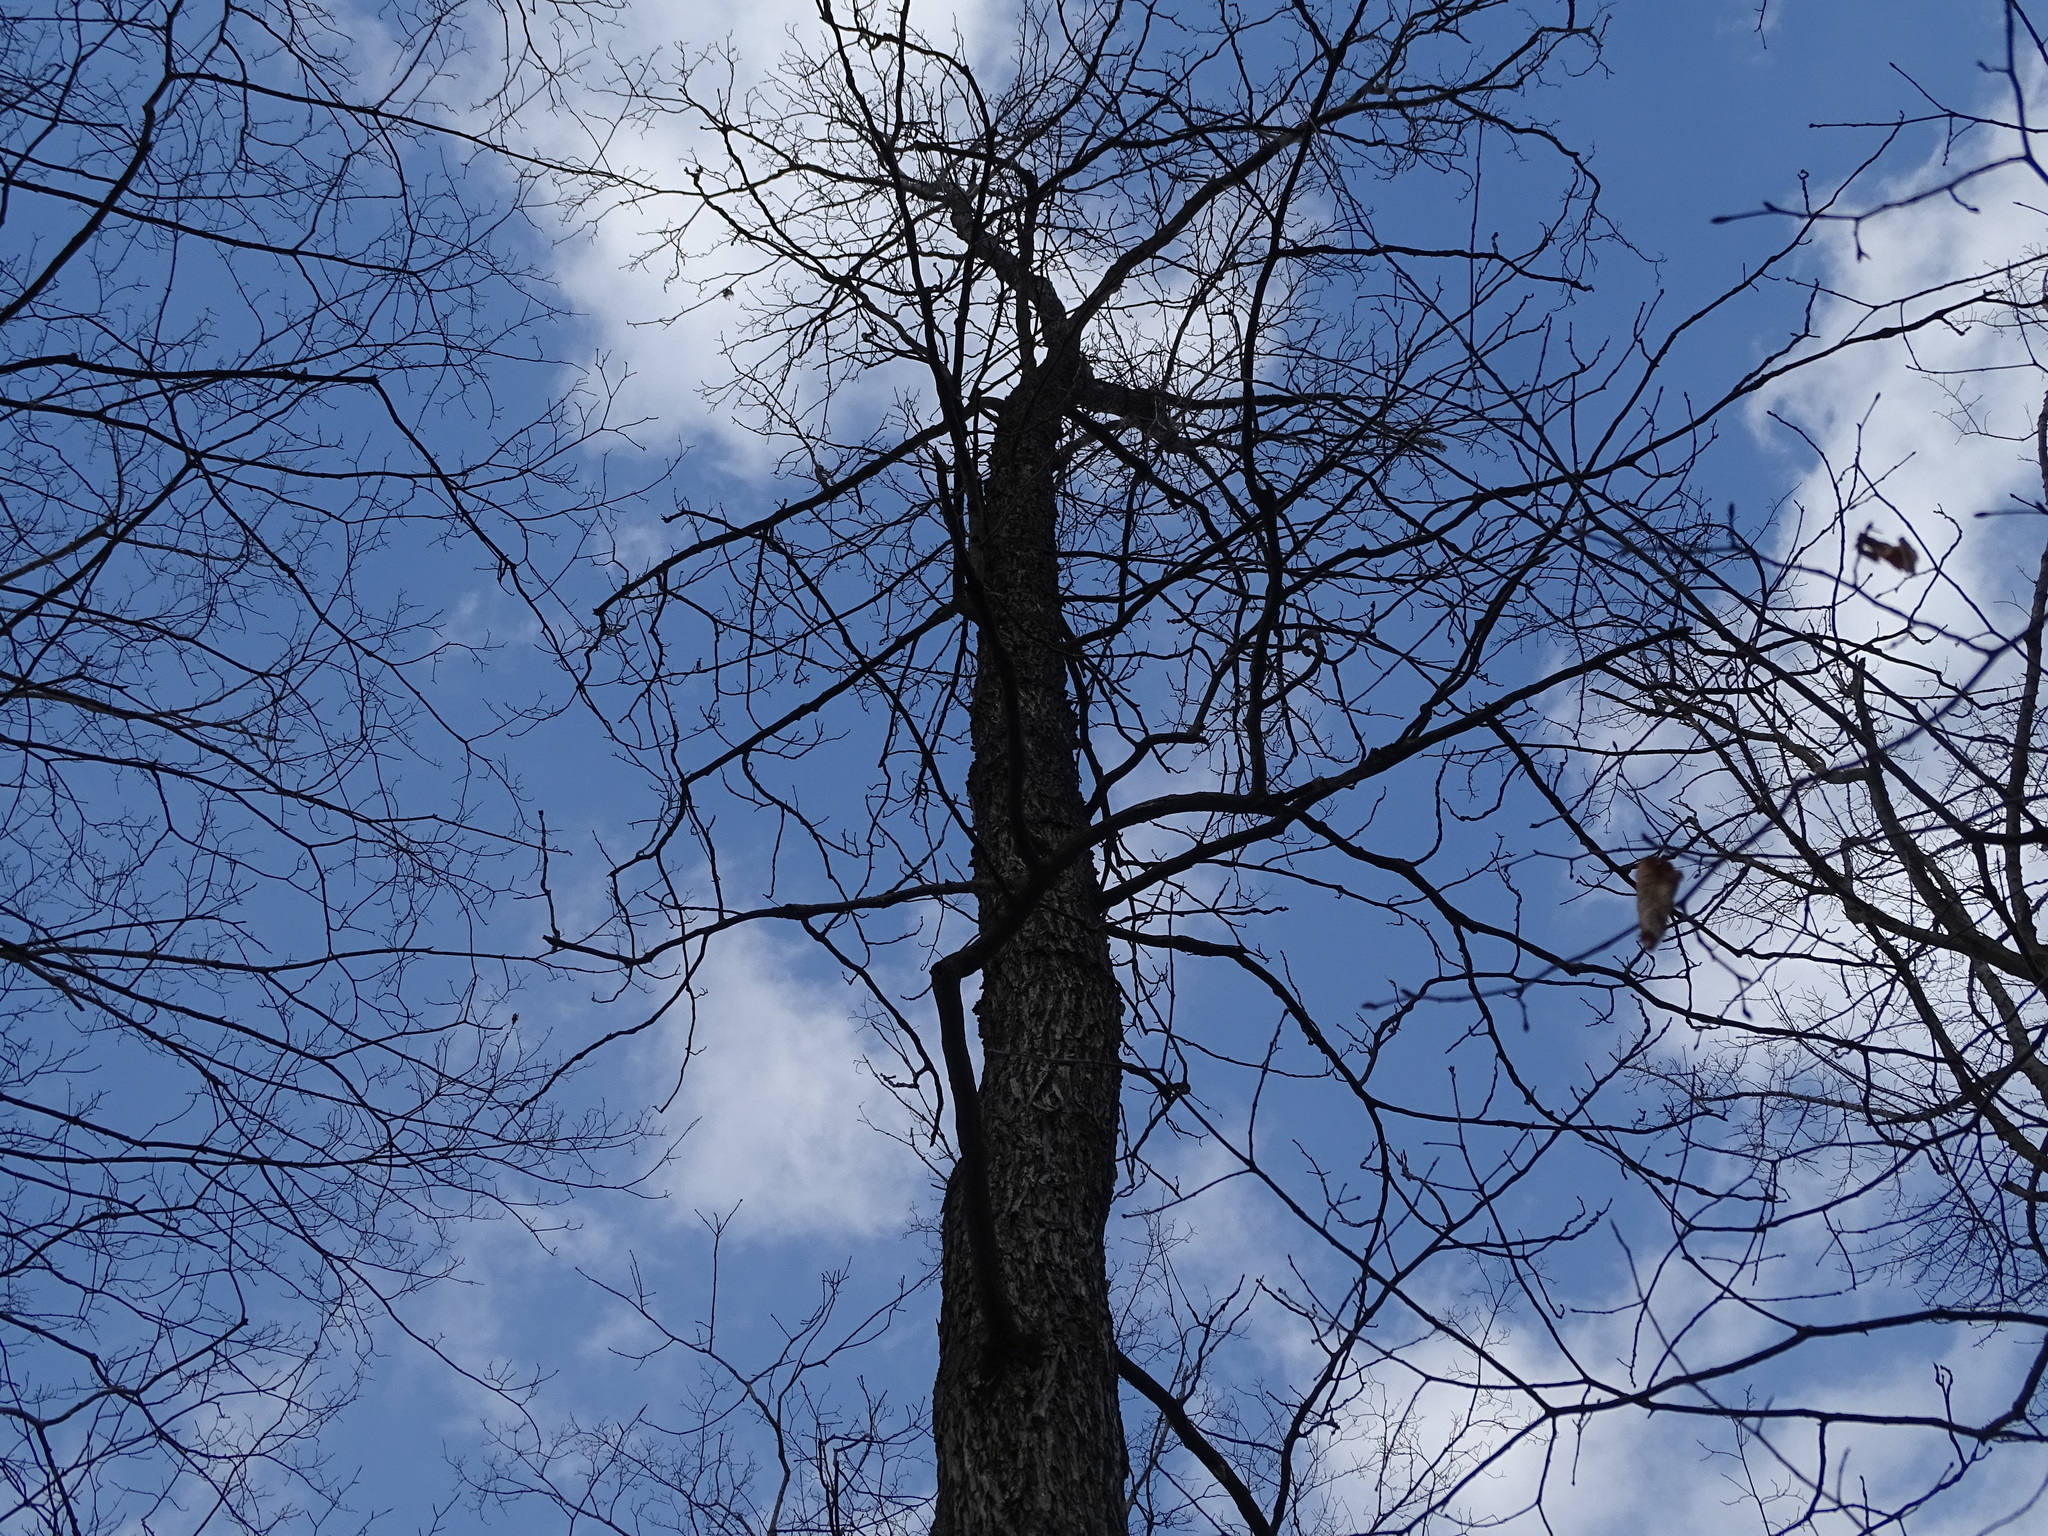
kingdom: Plantae
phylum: Tracheophyta
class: Magnoliopsida
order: Fagales
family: Juglandaceae
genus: Carya
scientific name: Carya glabra
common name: Pignut hickory
